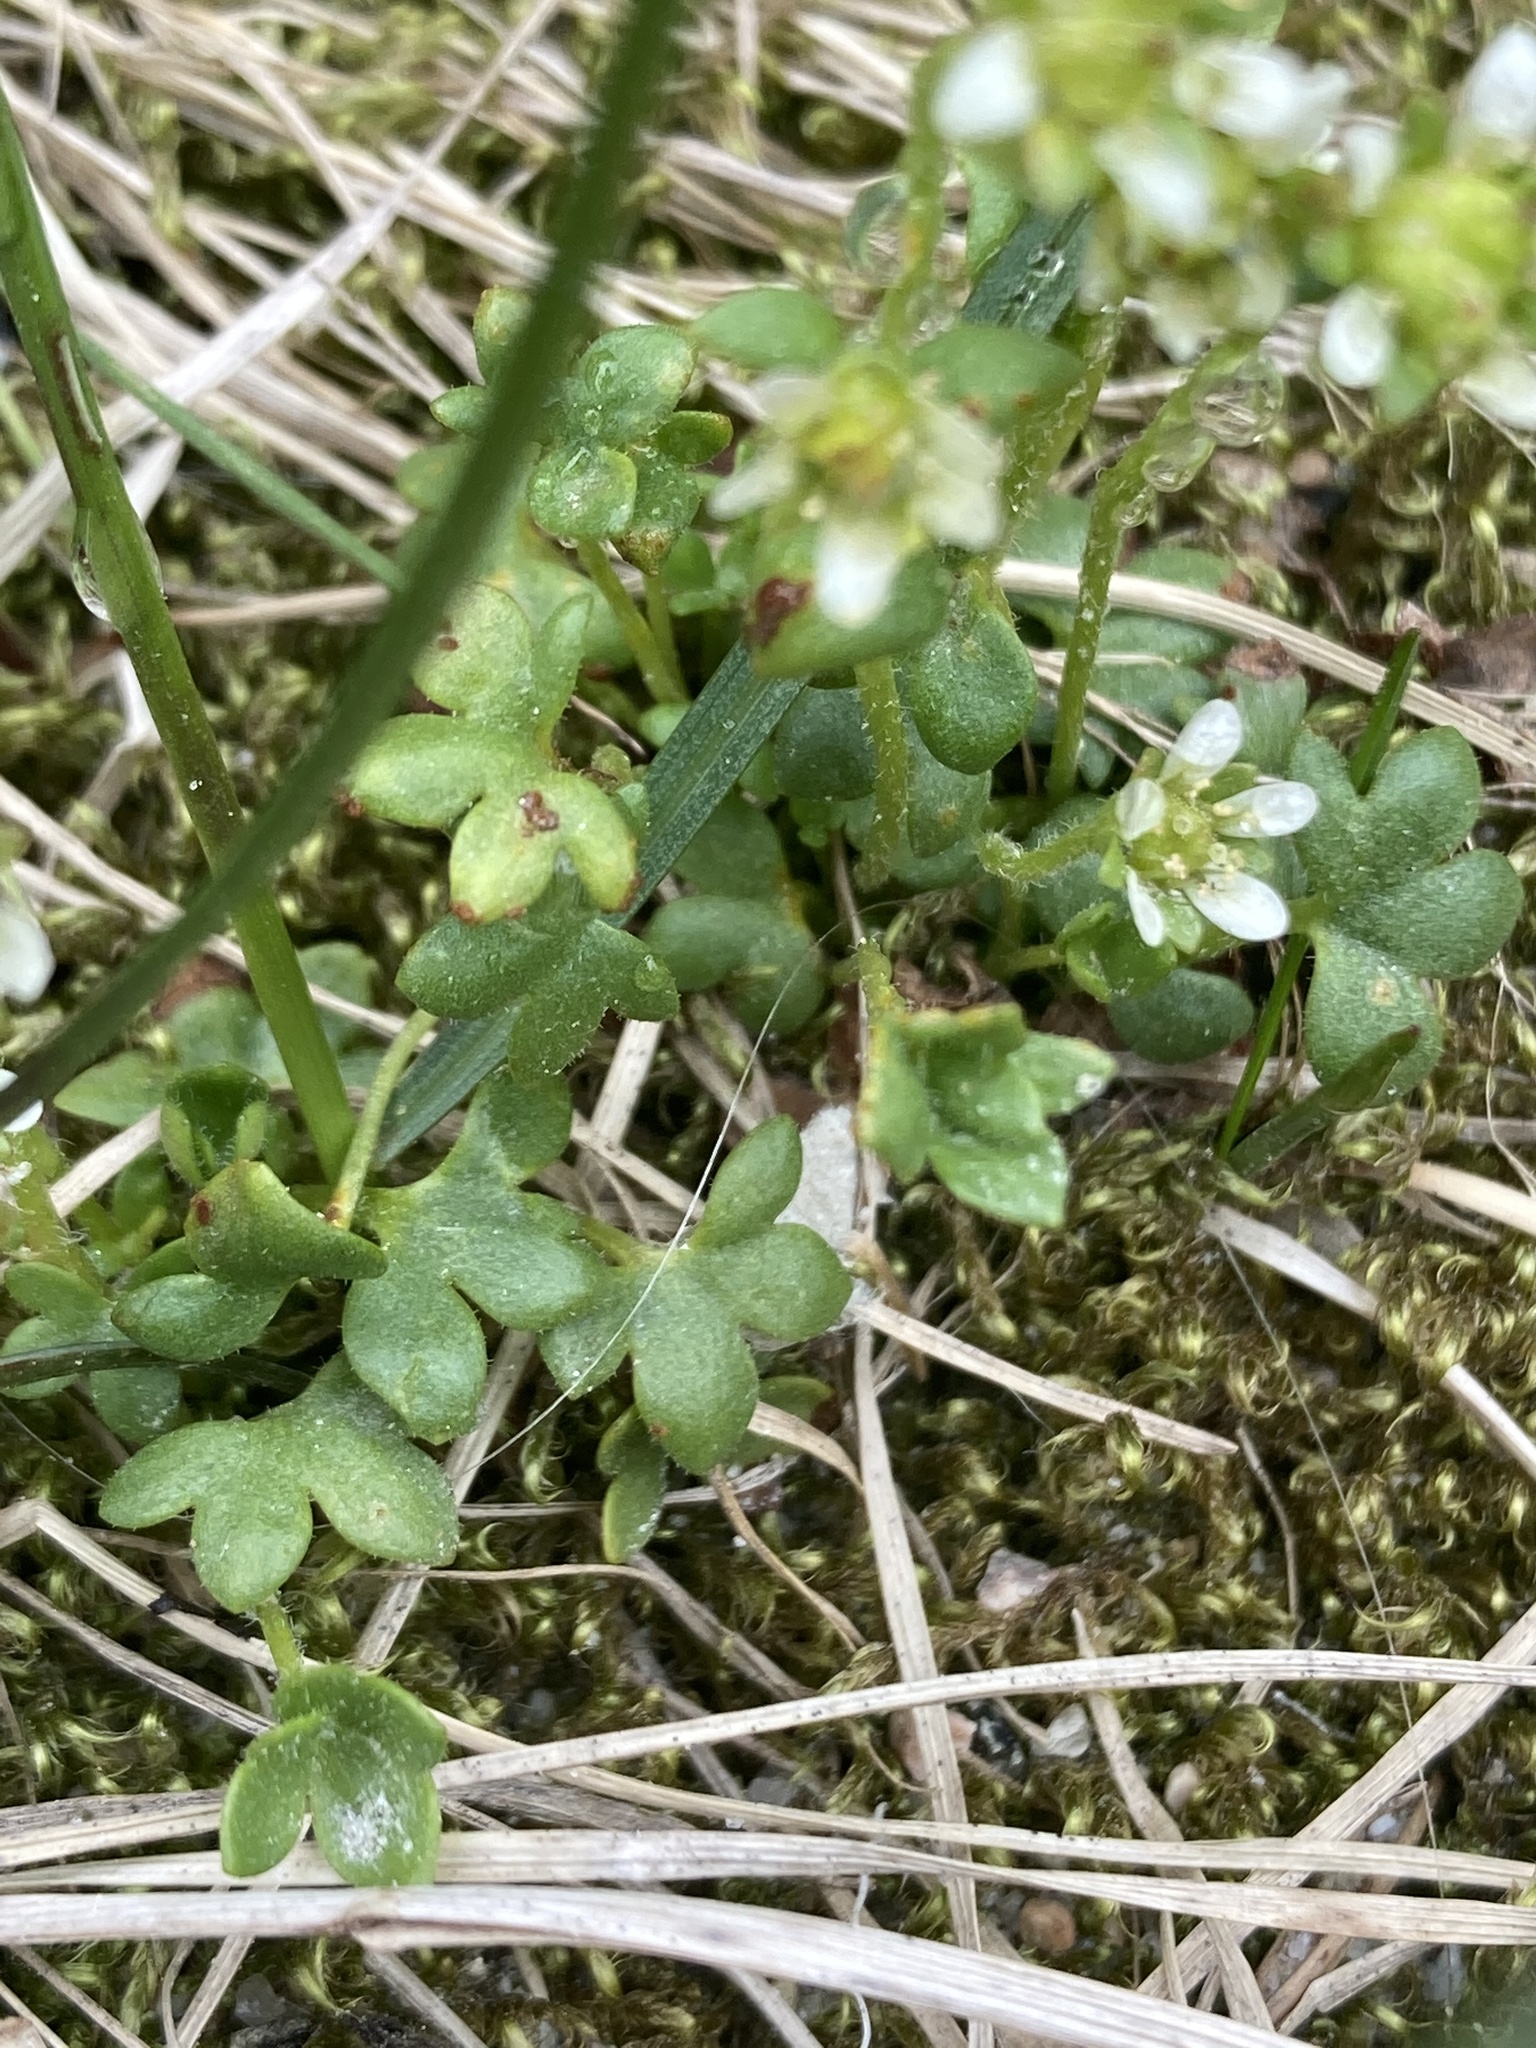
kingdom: Plantae
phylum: Tracheophyta
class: Magnoliopsida
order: Saxifragales
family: Saxifragaceae
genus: Saxifraga
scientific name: Saxifraga rivularis
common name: Highland saxifrage
